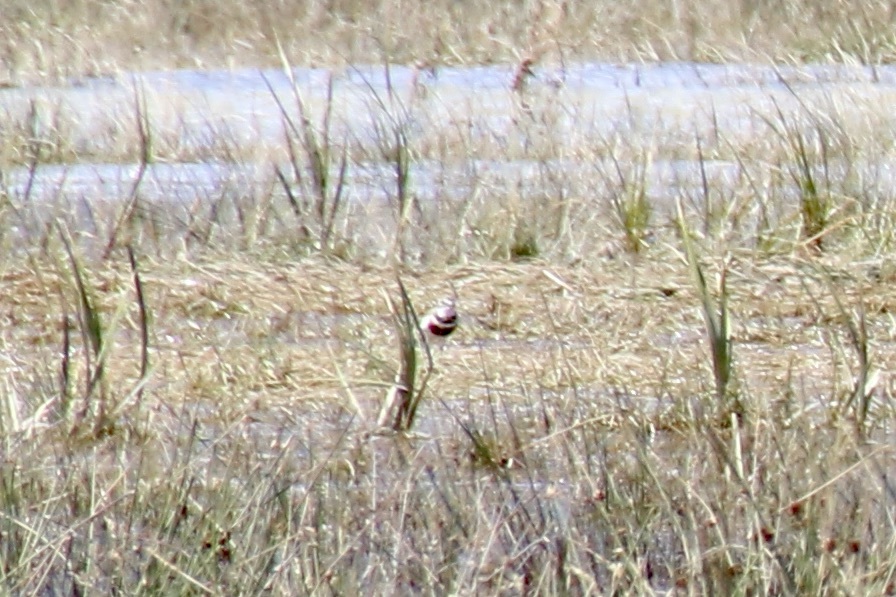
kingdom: Animalia
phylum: Chordata
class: Aves
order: Charadriiformes
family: Charadriidae
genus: Anarhynchus
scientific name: Anarhynchus
